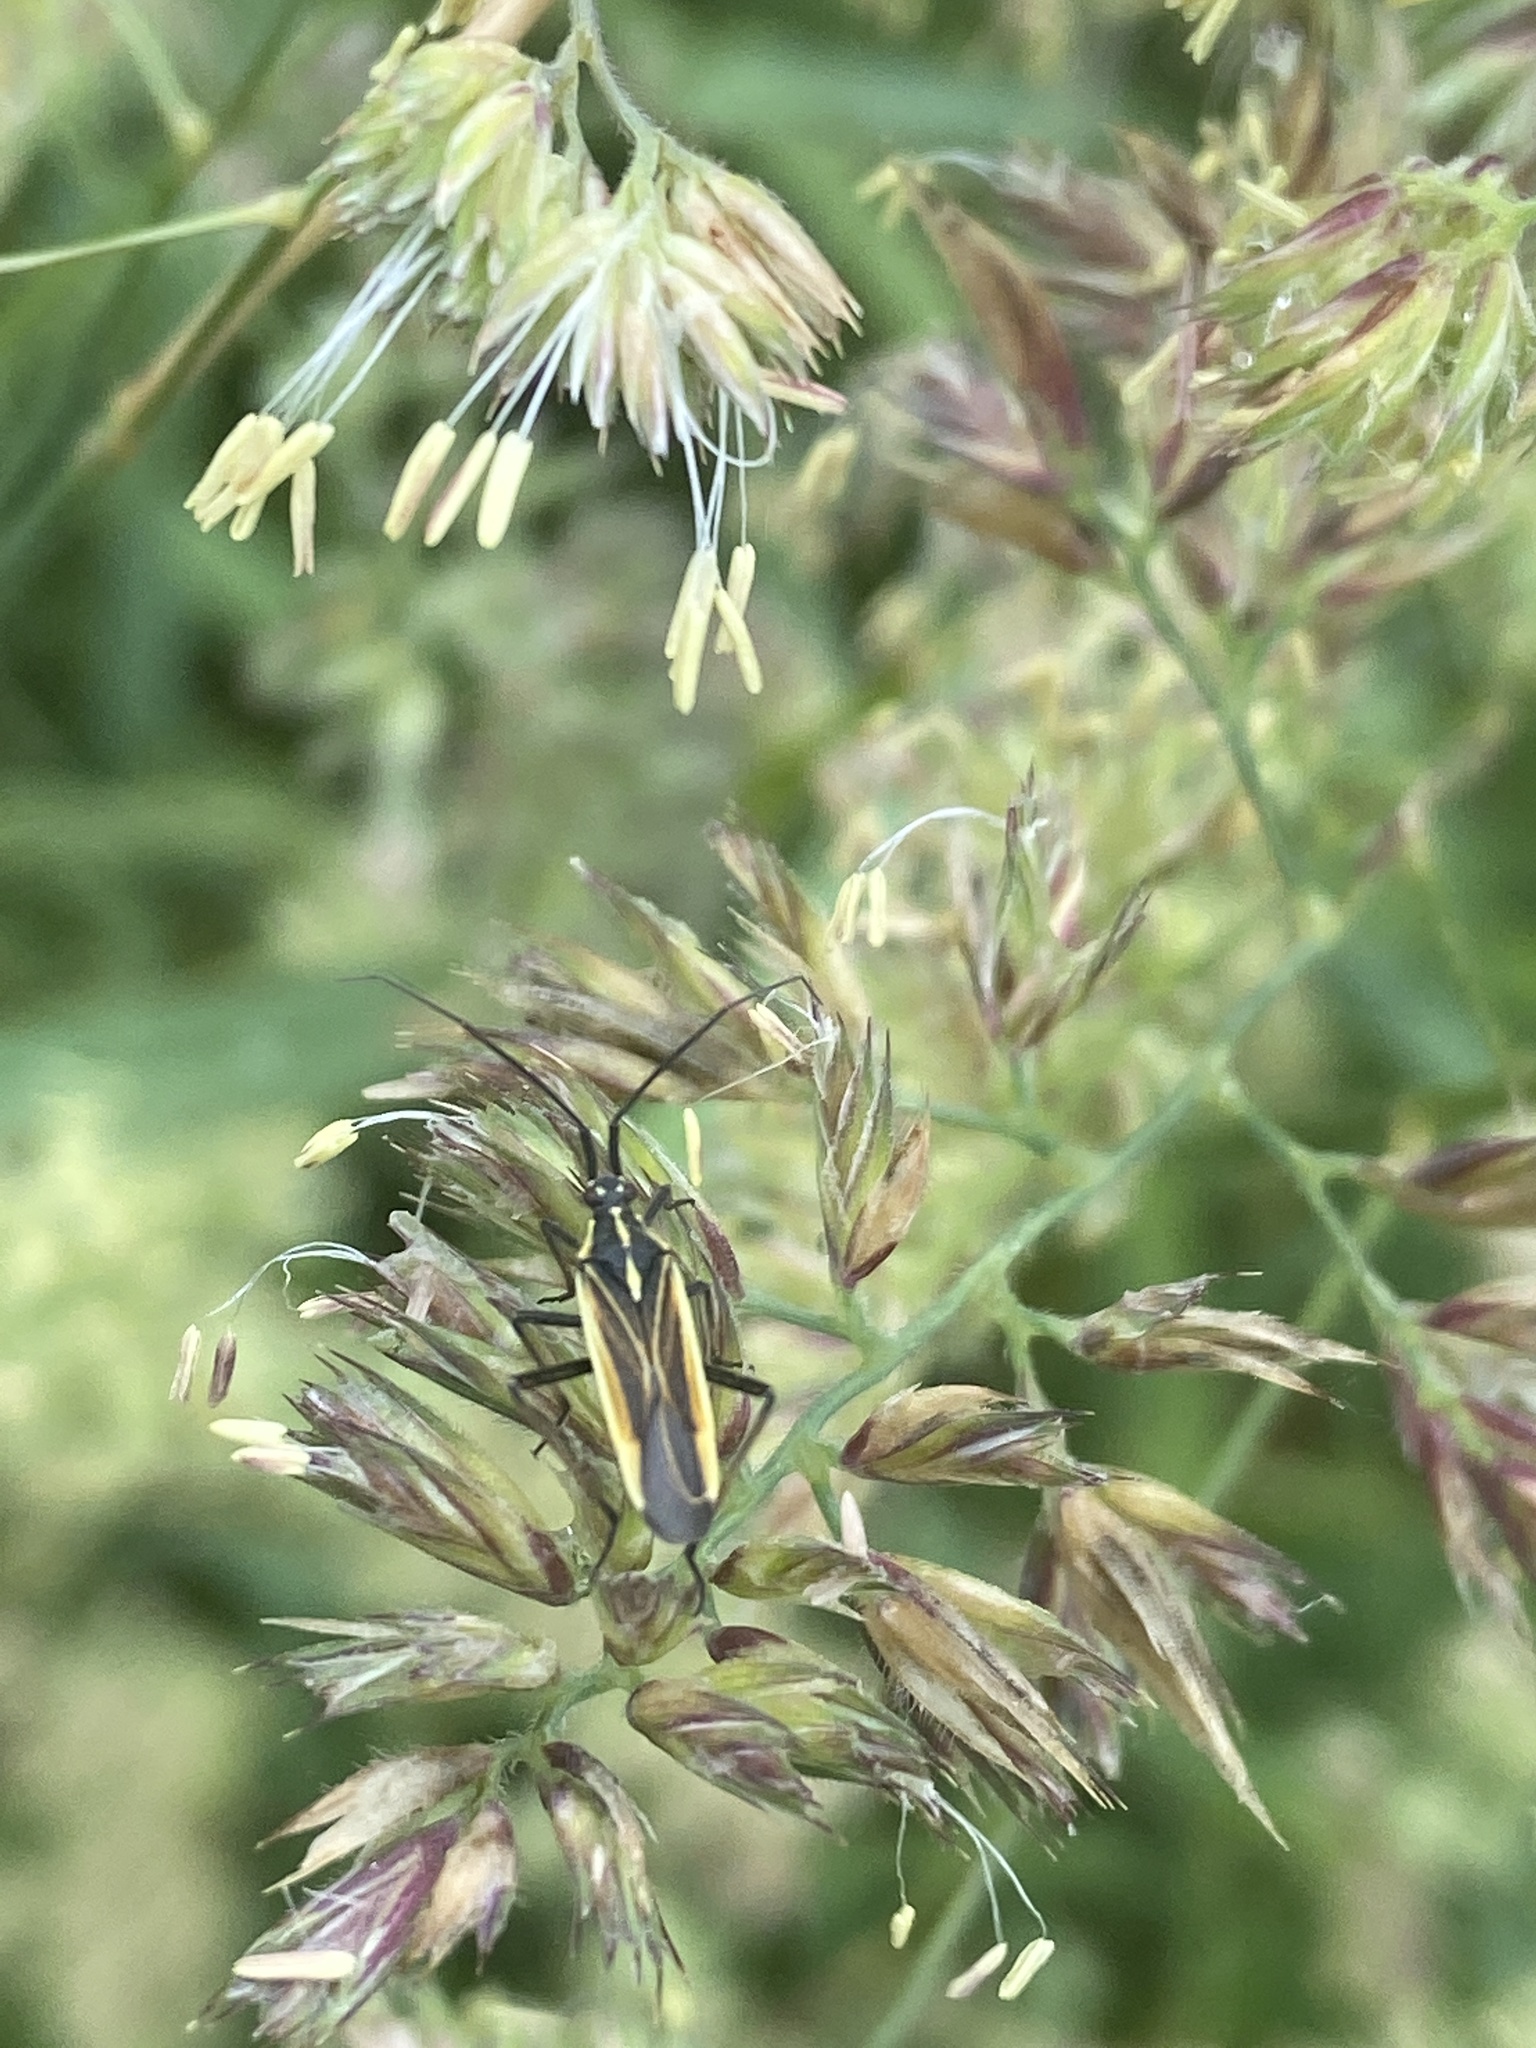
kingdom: Animalia
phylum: Arthropoda
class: Insecta
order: Hemiptera
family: Miridae
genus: Leptopterna
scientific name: Leptopterna dolabrata
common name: Meadow plant bug
